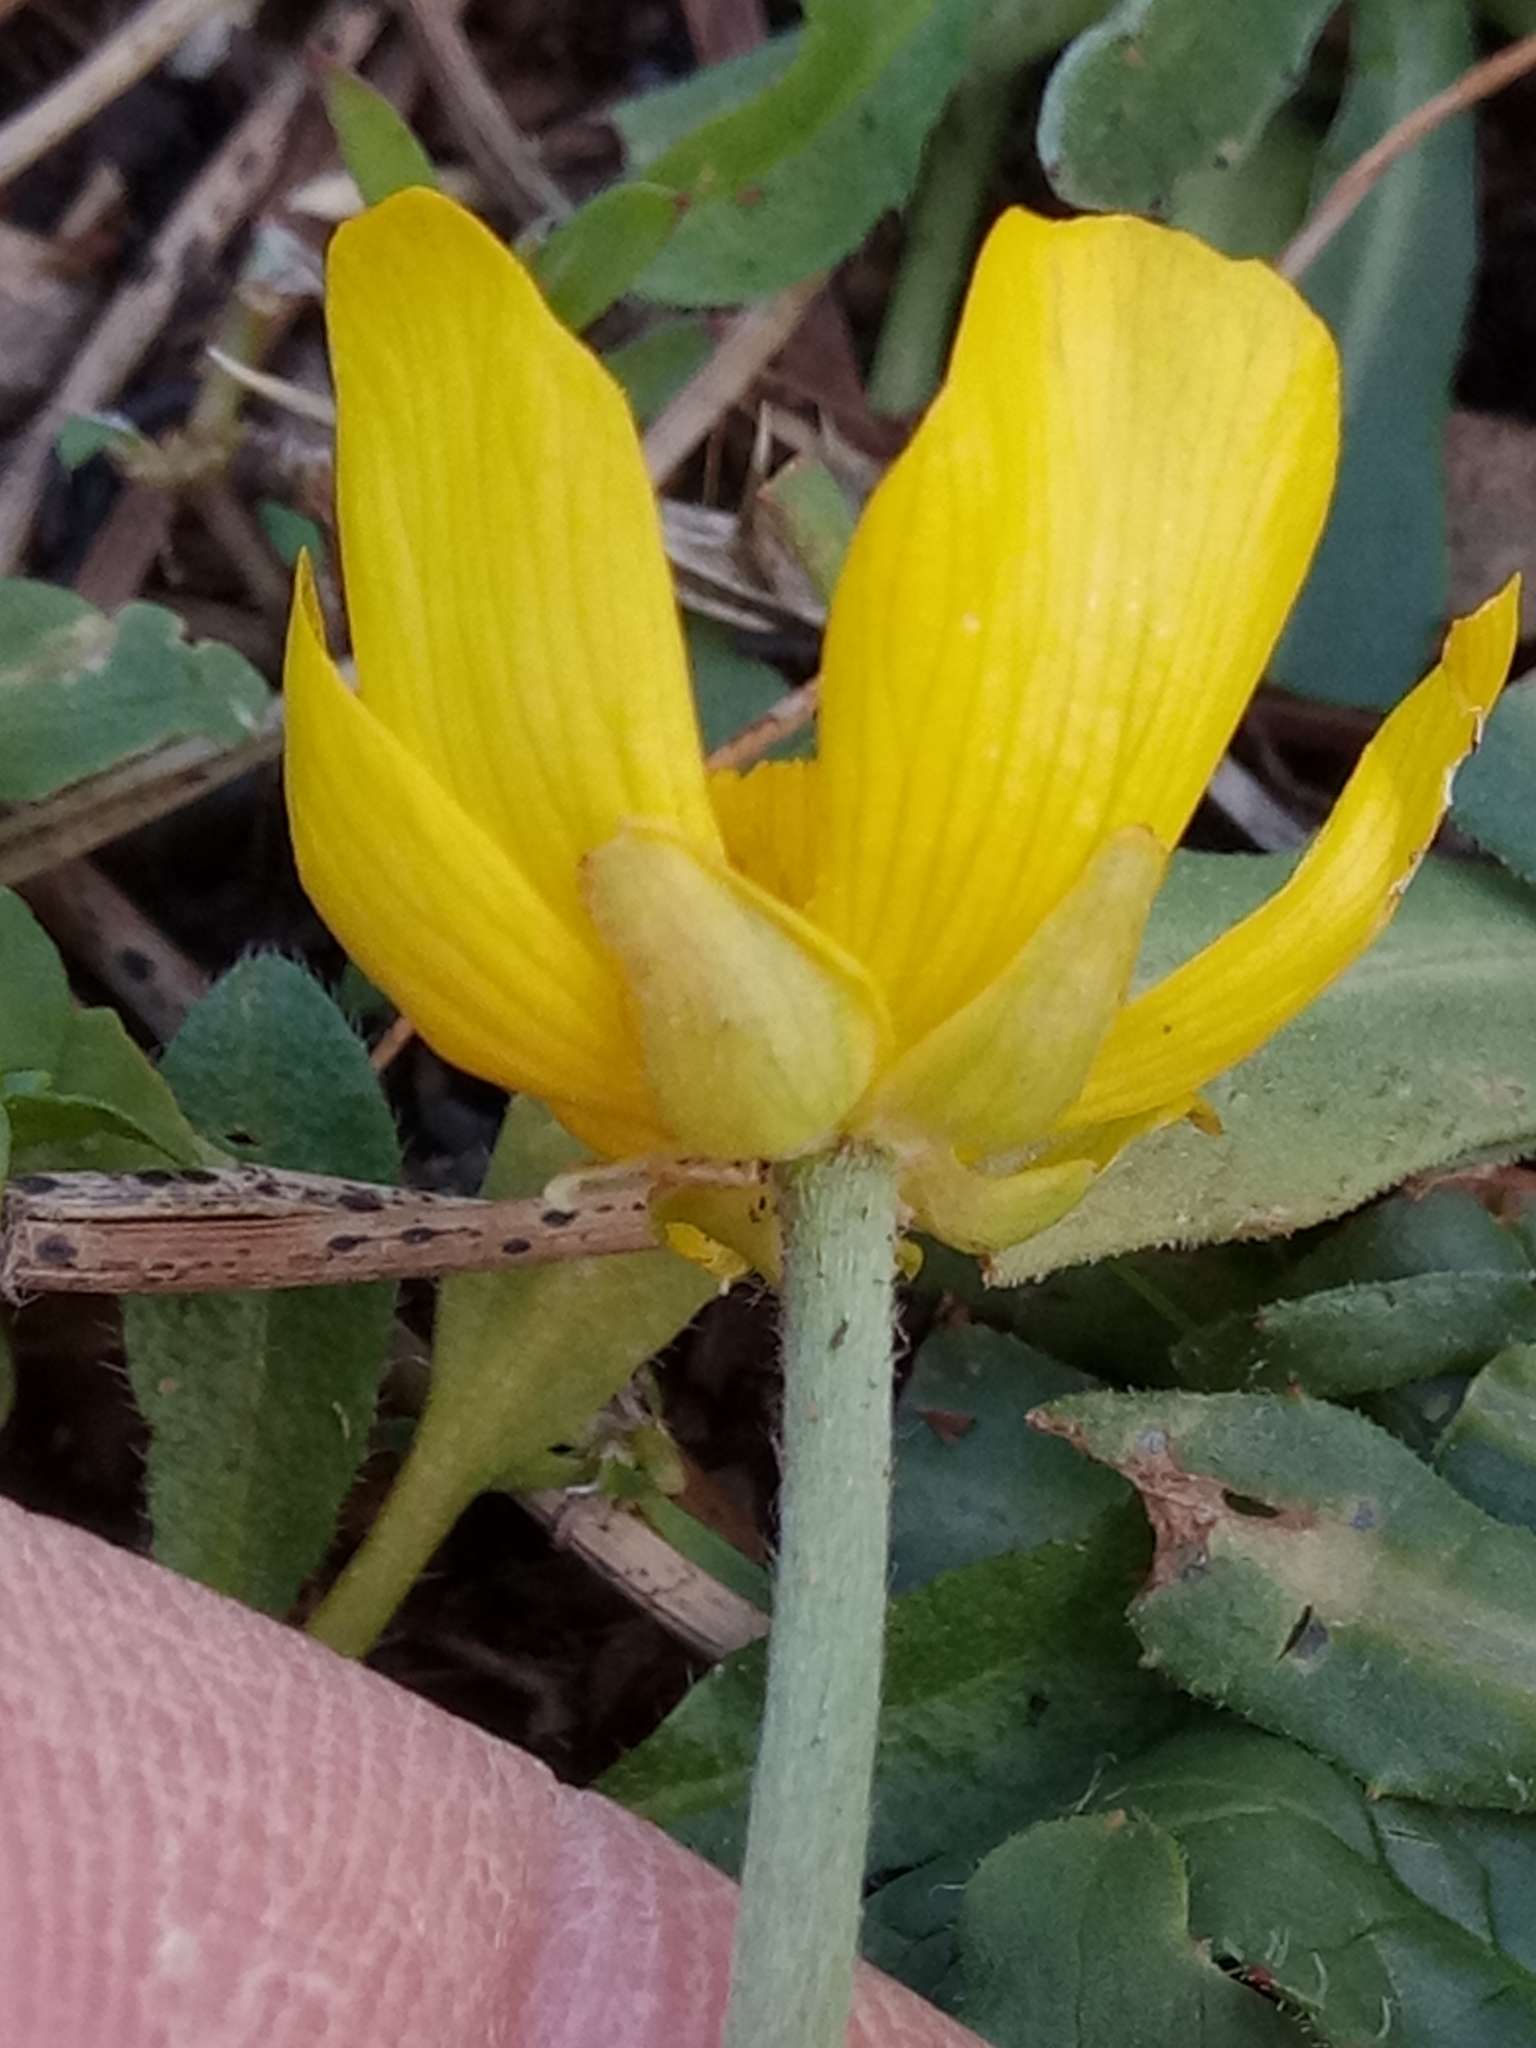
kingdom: Plantae
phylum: Tracheophyta
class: Magnoliopsida
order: Ranunculales
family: Ranunculaceae
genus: Ranunculus
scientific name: Ranunculus bullatus
